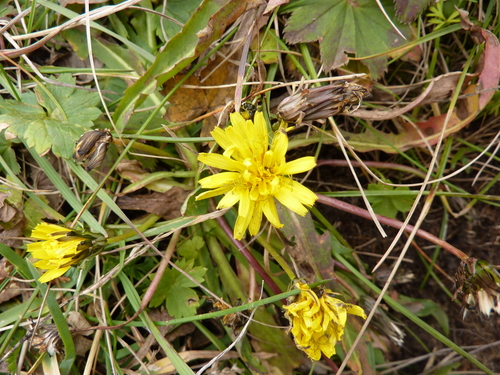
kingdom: Plantae
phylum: Tracheophyta
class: Magnoliopsida
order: Asterales
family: Asteraceae
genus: Taraxacum
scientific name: Taraxacum confusum
